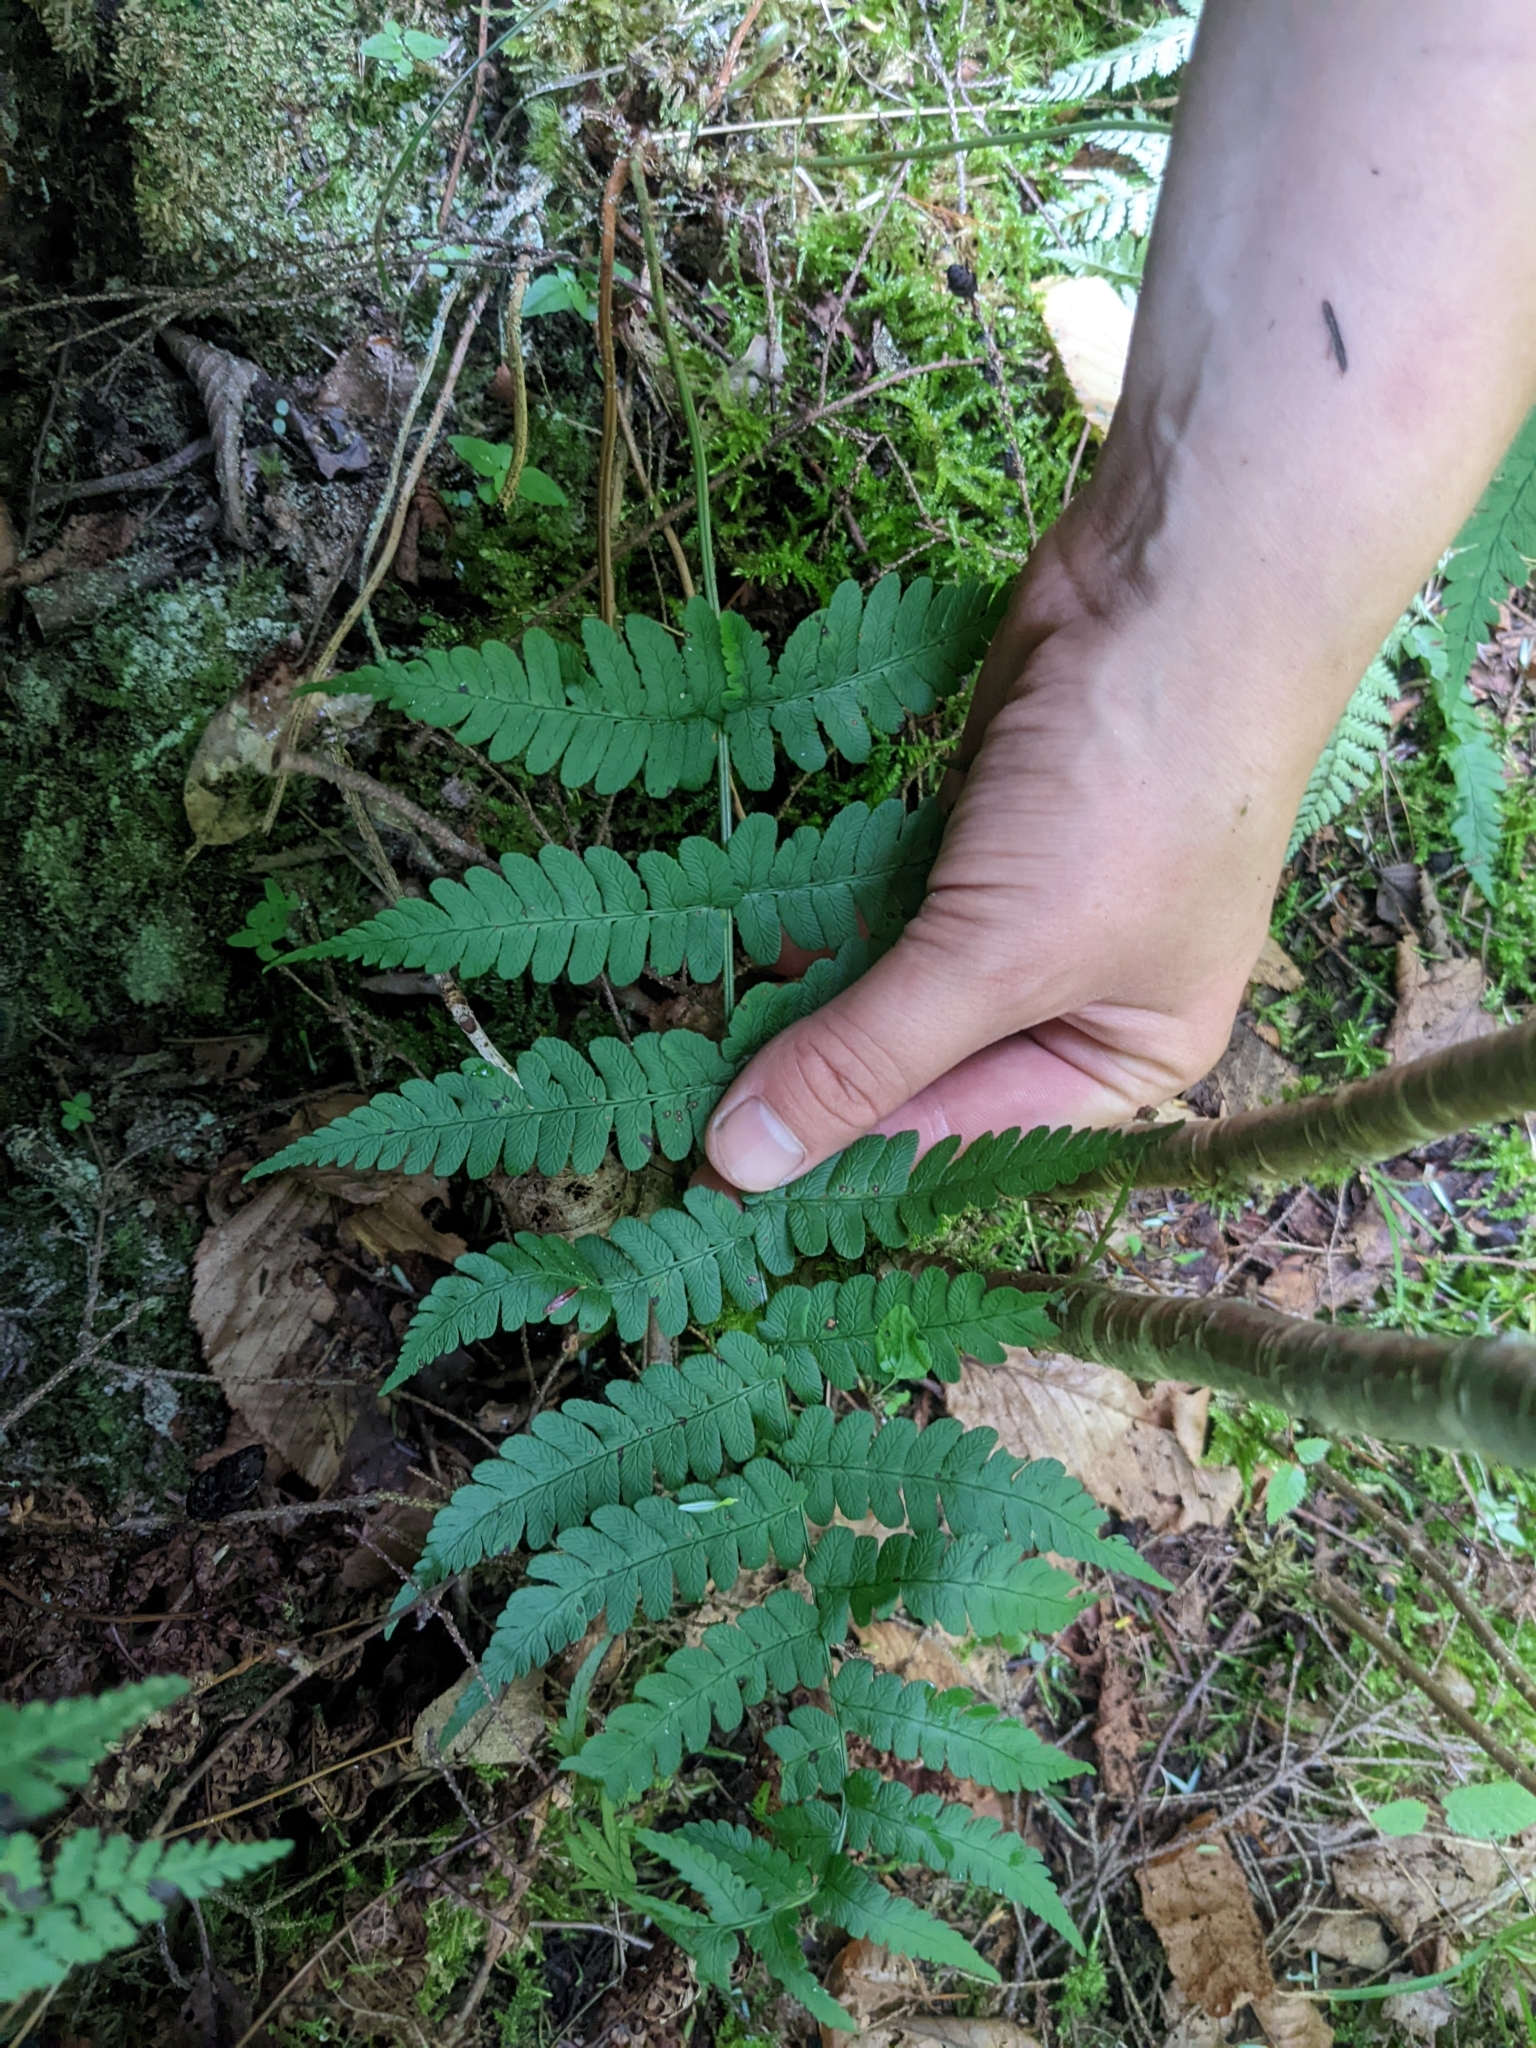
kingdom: Plantae
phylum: Tracheophyta
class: Polypodiopsida
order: Polypodiales
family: Dryopteridaceae
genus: Dryopteris
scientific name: Dryopteris marginalis
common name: Marginal wood fern
